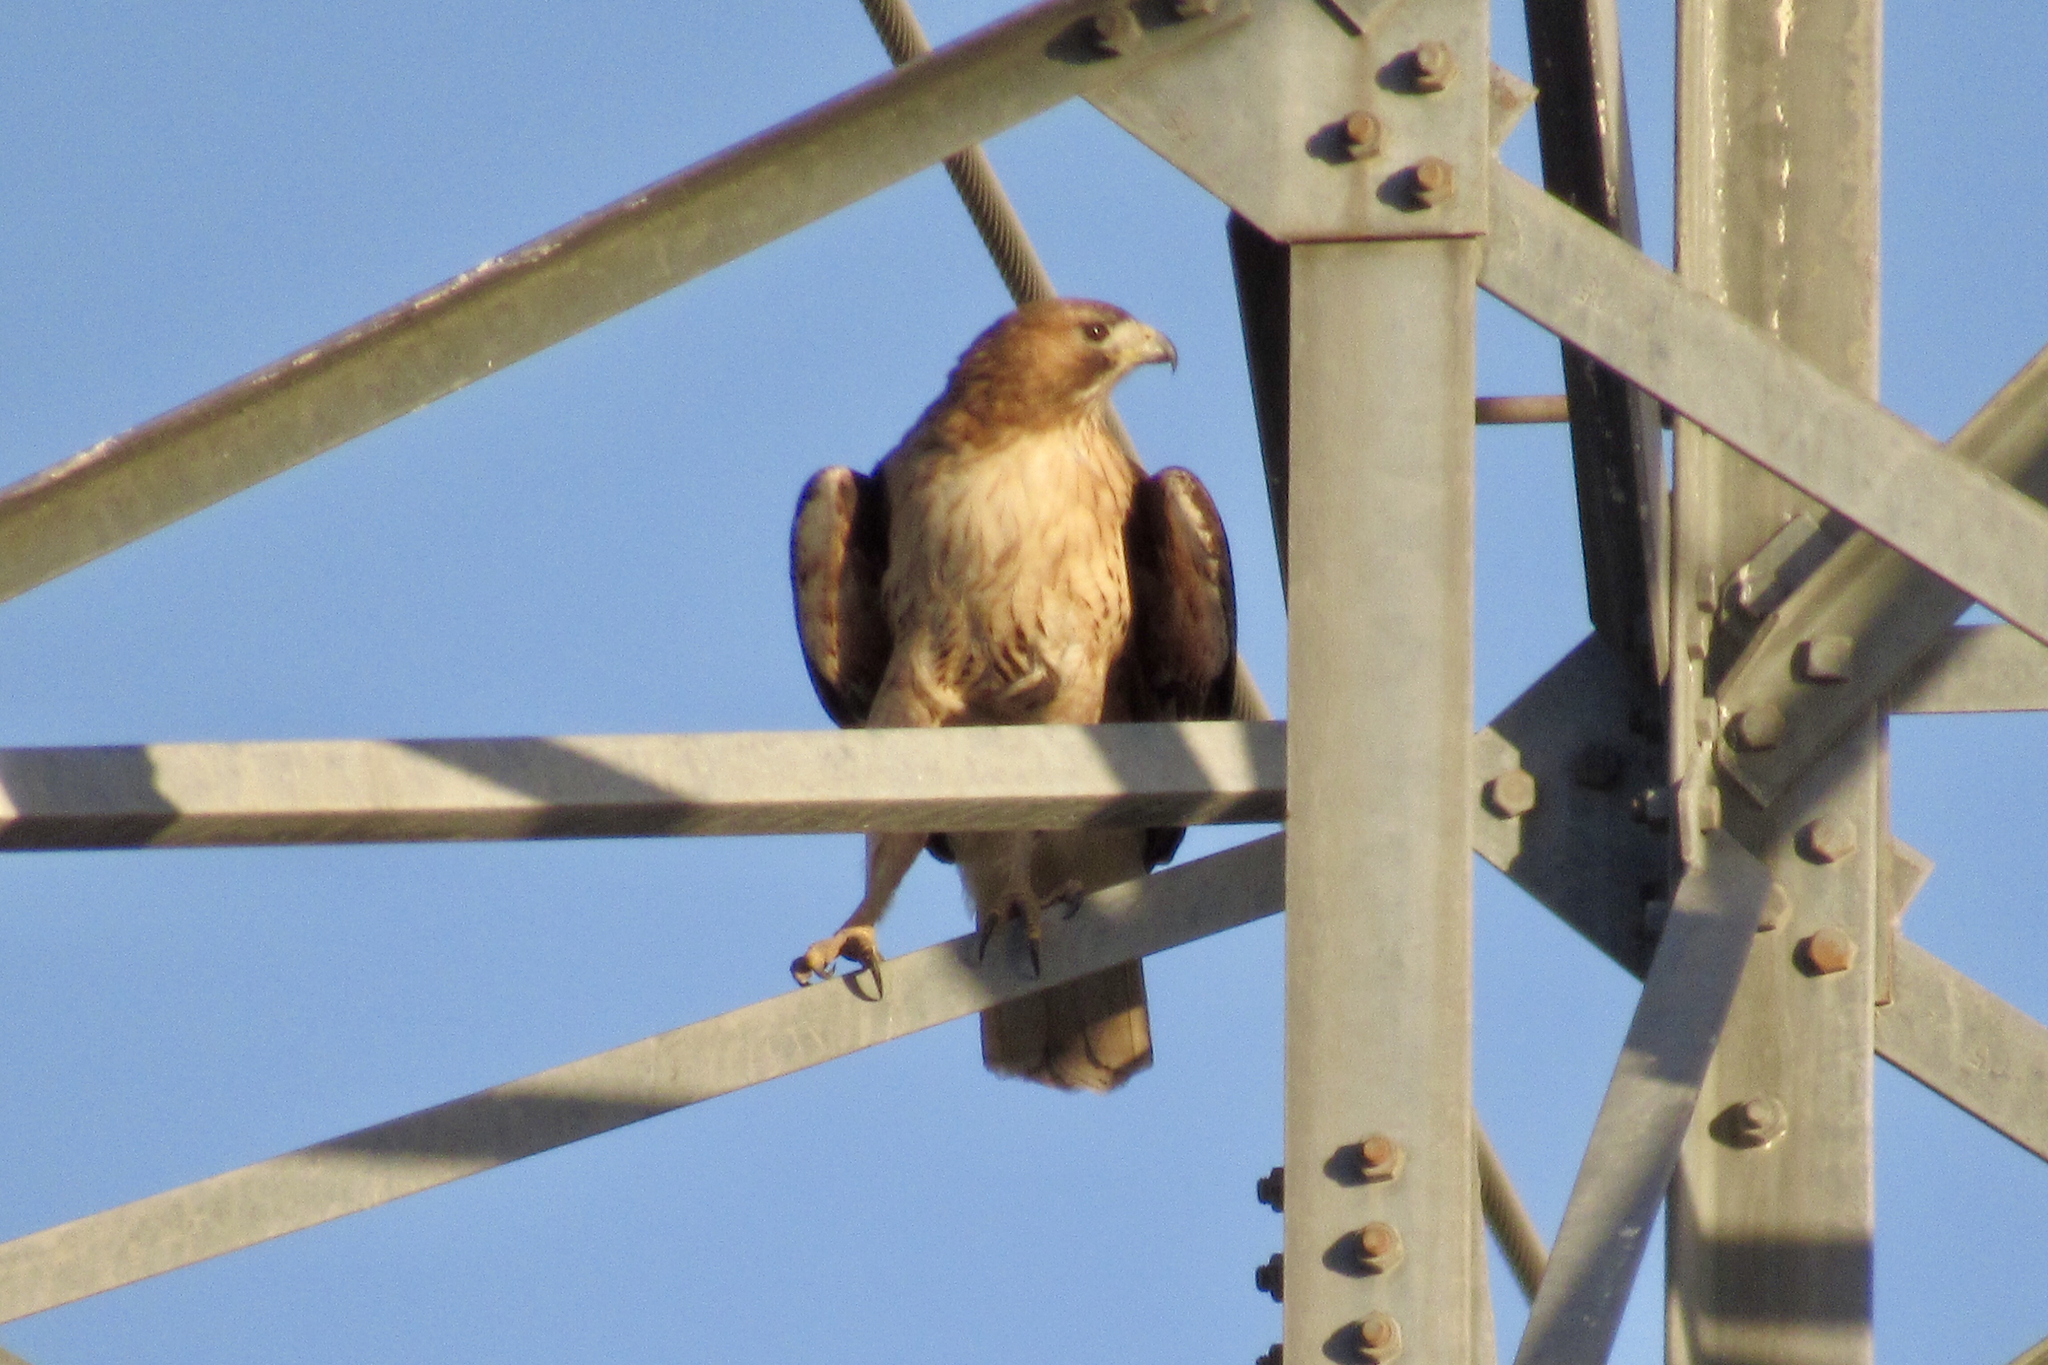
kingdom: Animalia
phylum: Chordata
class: Aves
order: Accipitriformes
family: Accipitridae
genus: Buteo
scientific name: Buteo jamaicensis
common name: Red-tailed hawk
